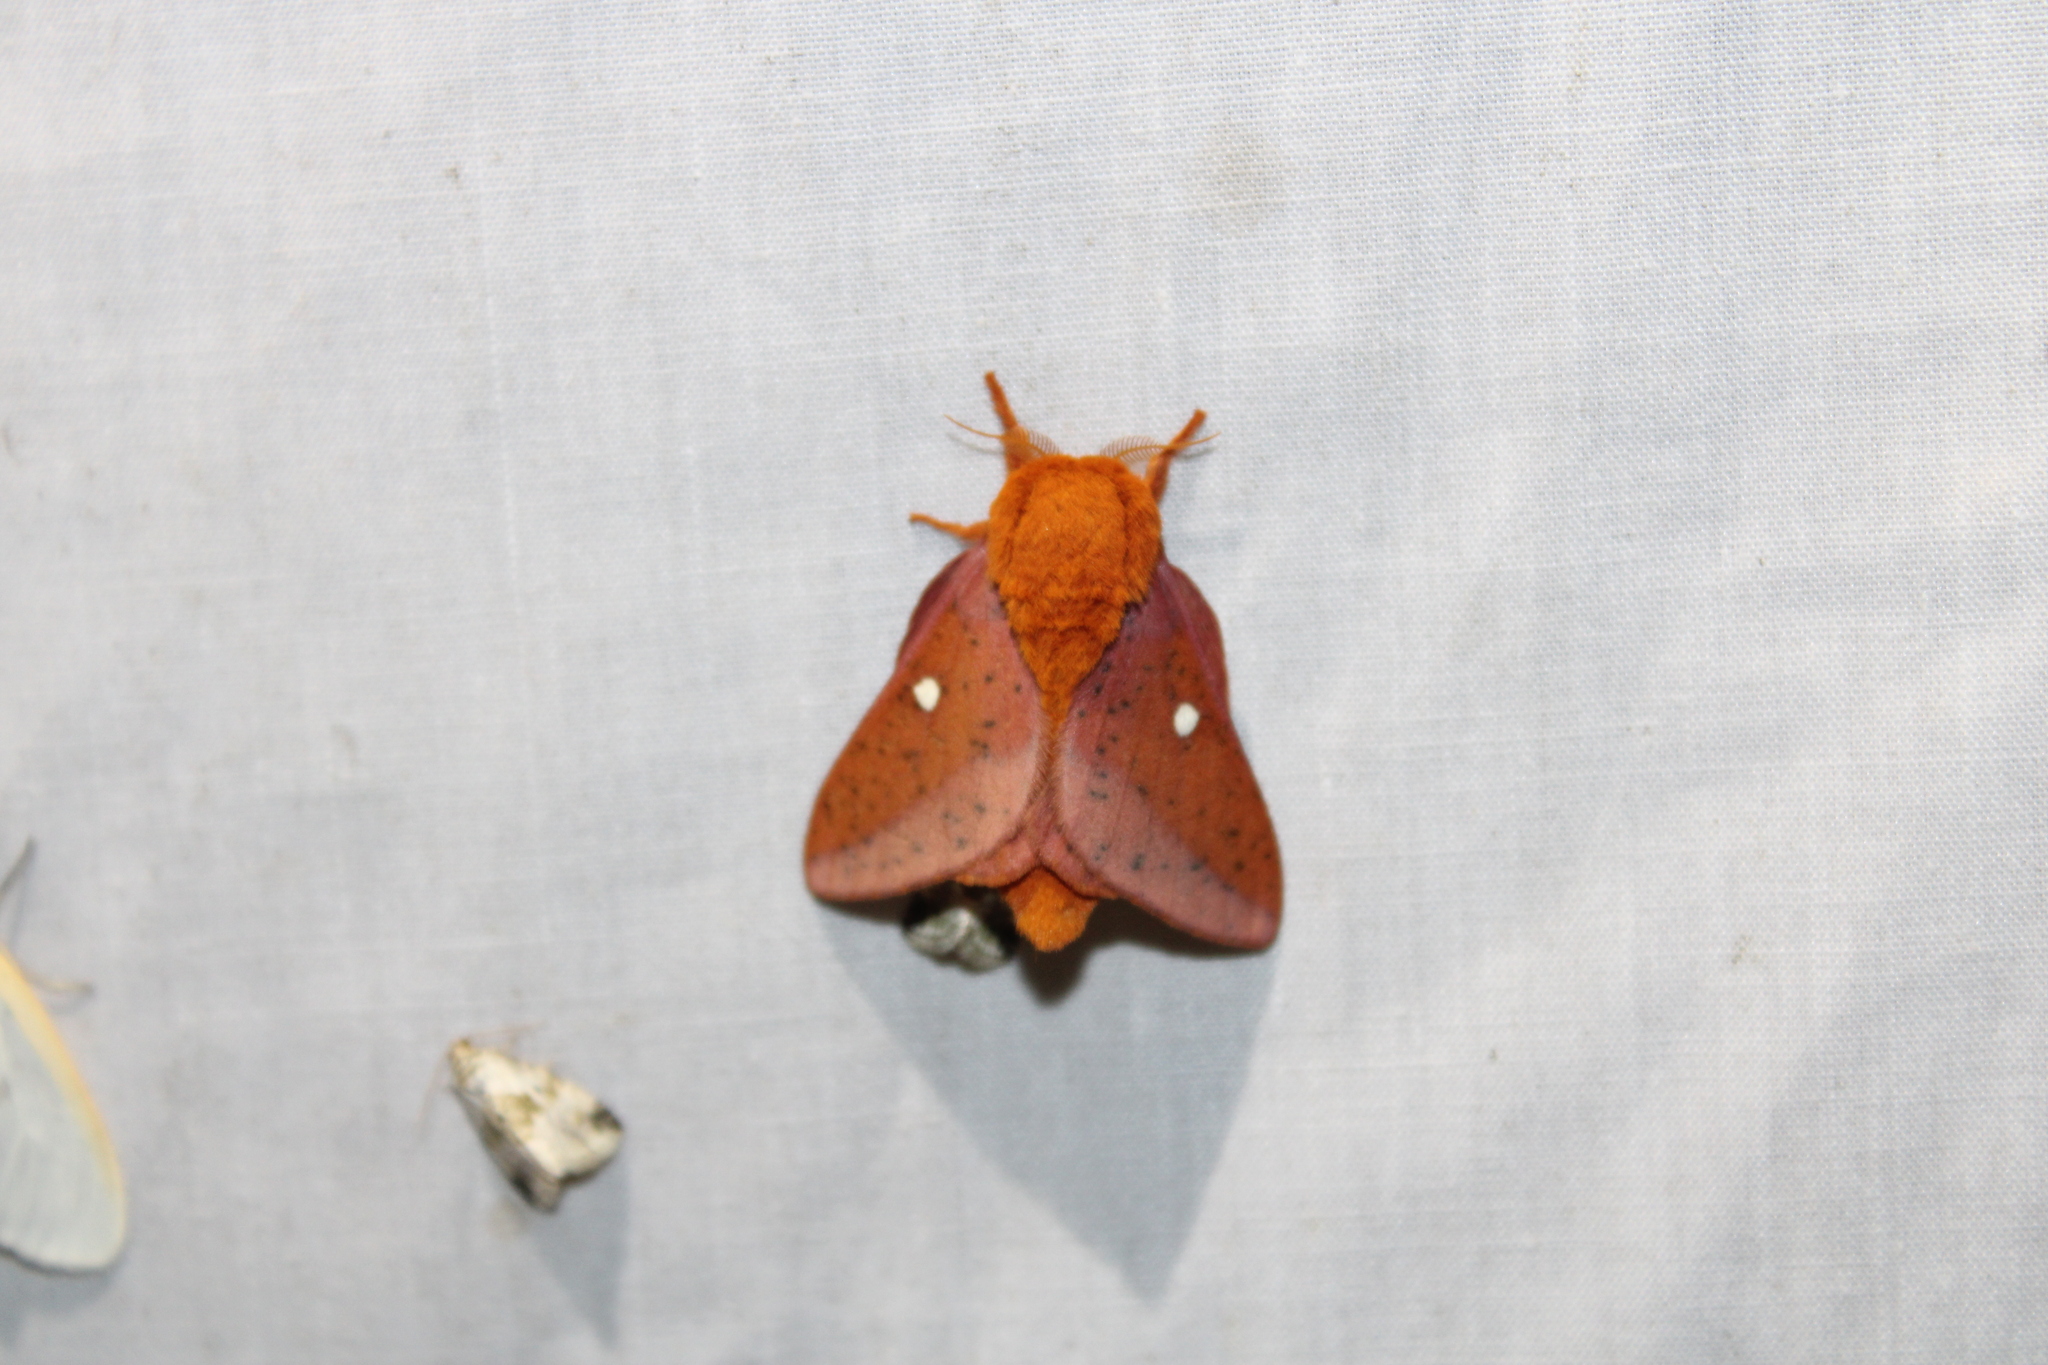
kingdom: Animalia
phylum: Arthropoda
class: Insecta
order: Lepidoptera
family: Saturniidae
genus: Anisota
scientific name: Anisota stigma
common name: Spiny oakworm moth
